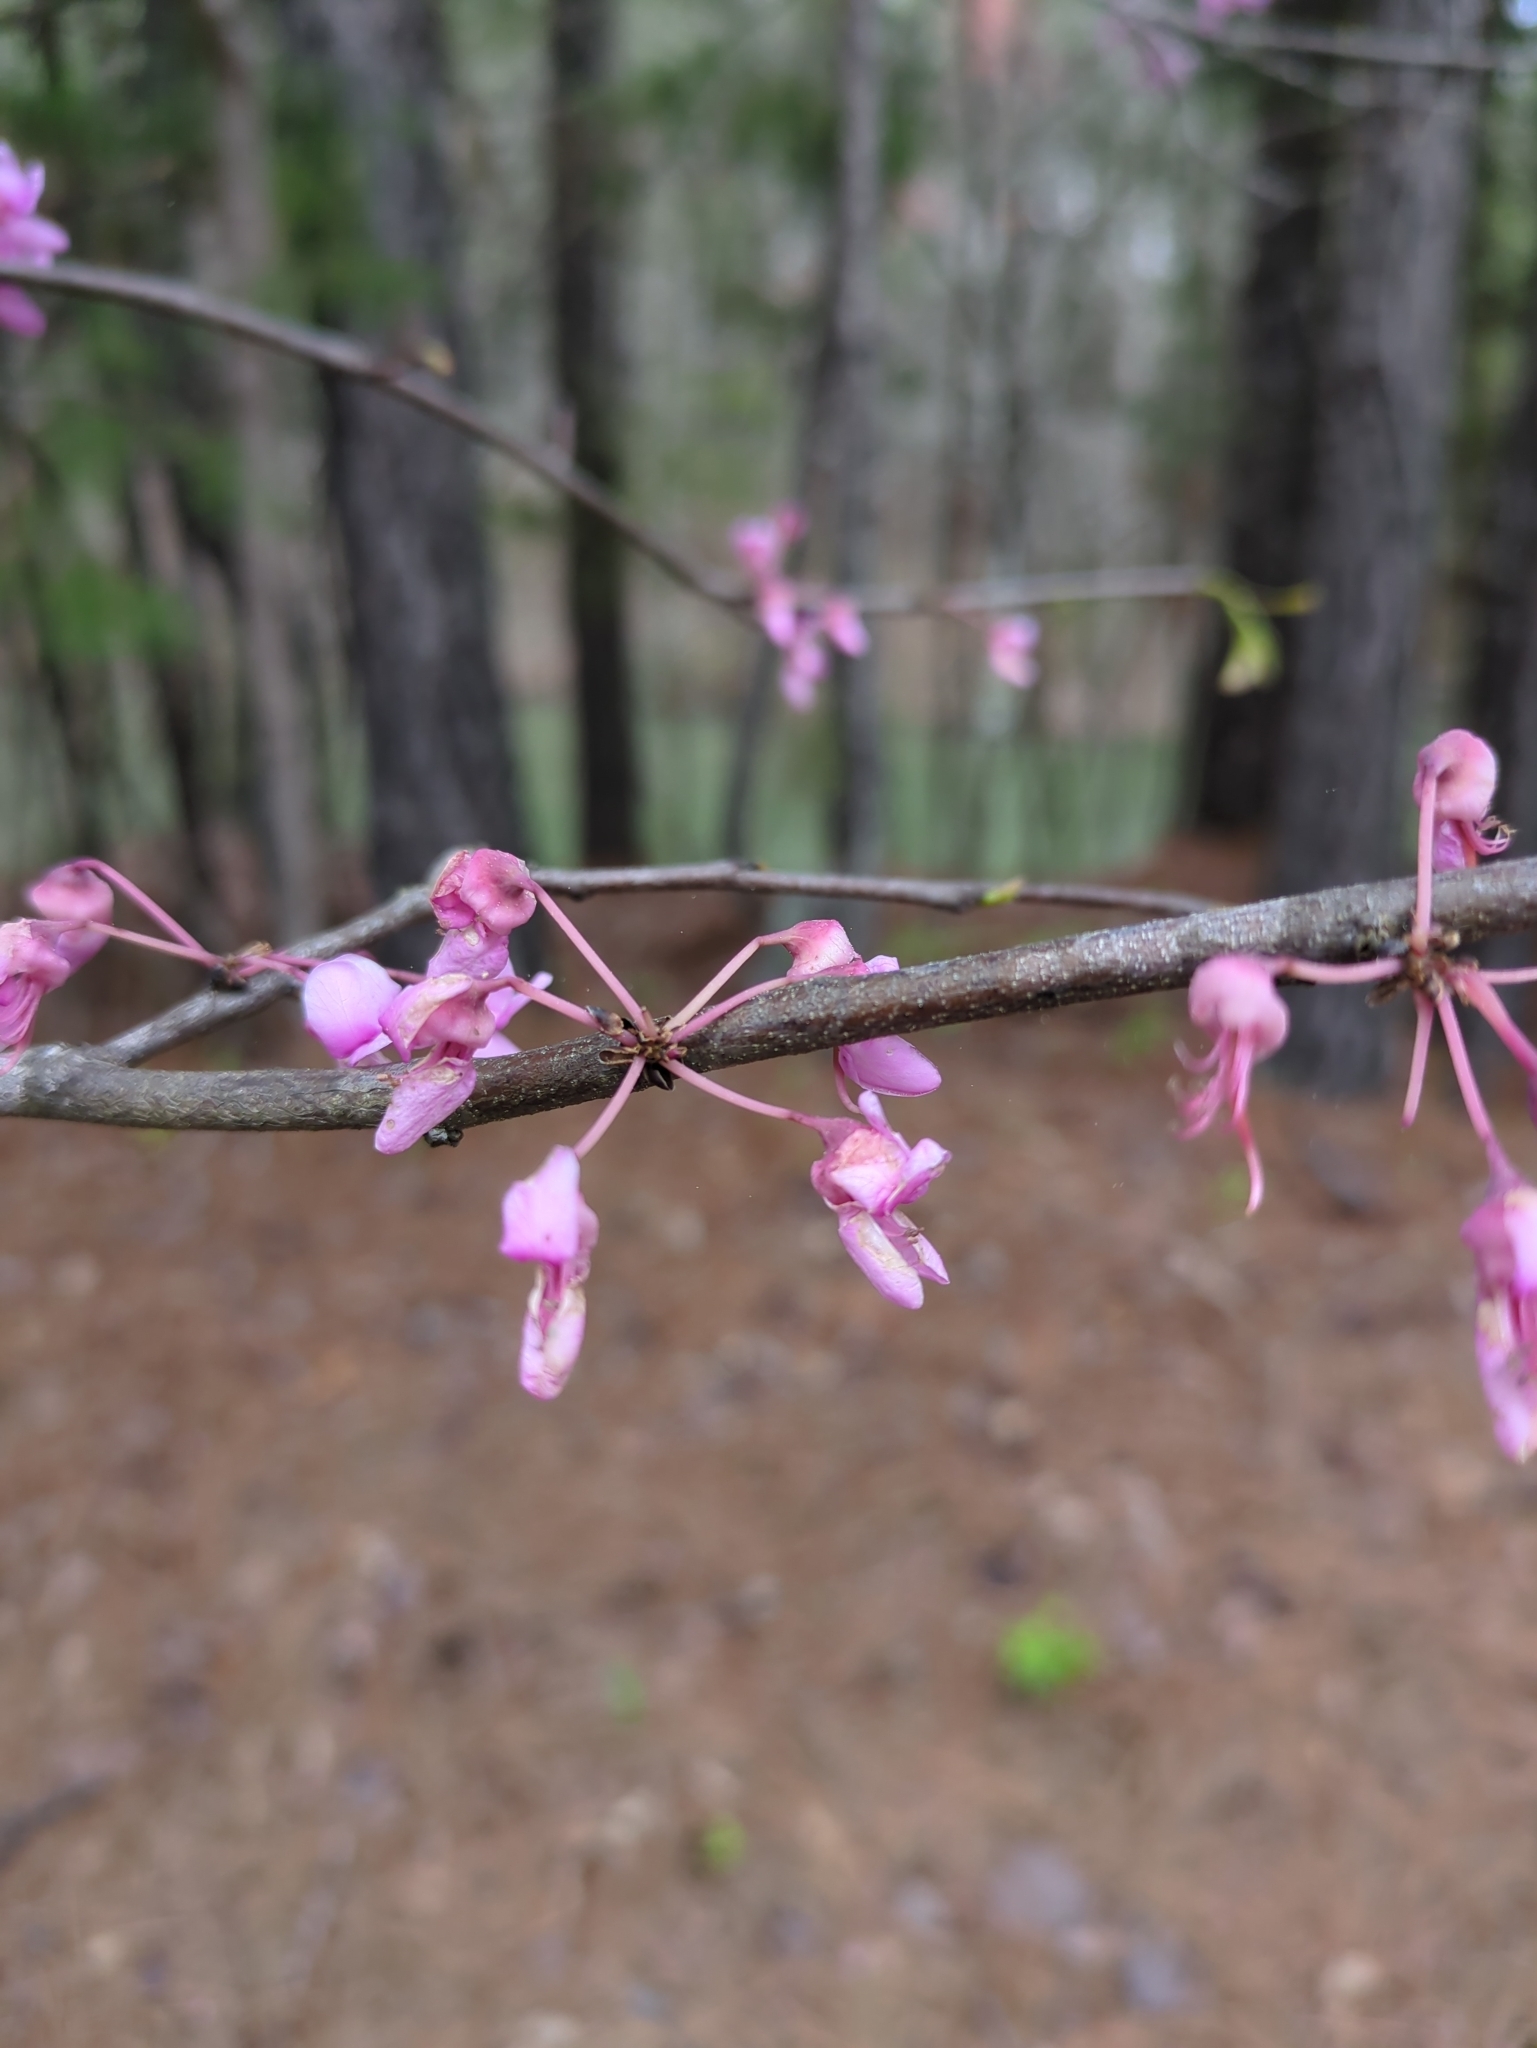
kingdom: Plantae
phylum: Tracheophyta
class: Magnoliopsida
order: Fabales
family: Fabaceae
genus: Cercis
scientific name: Cercis canadensis
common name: Eastern redbud
